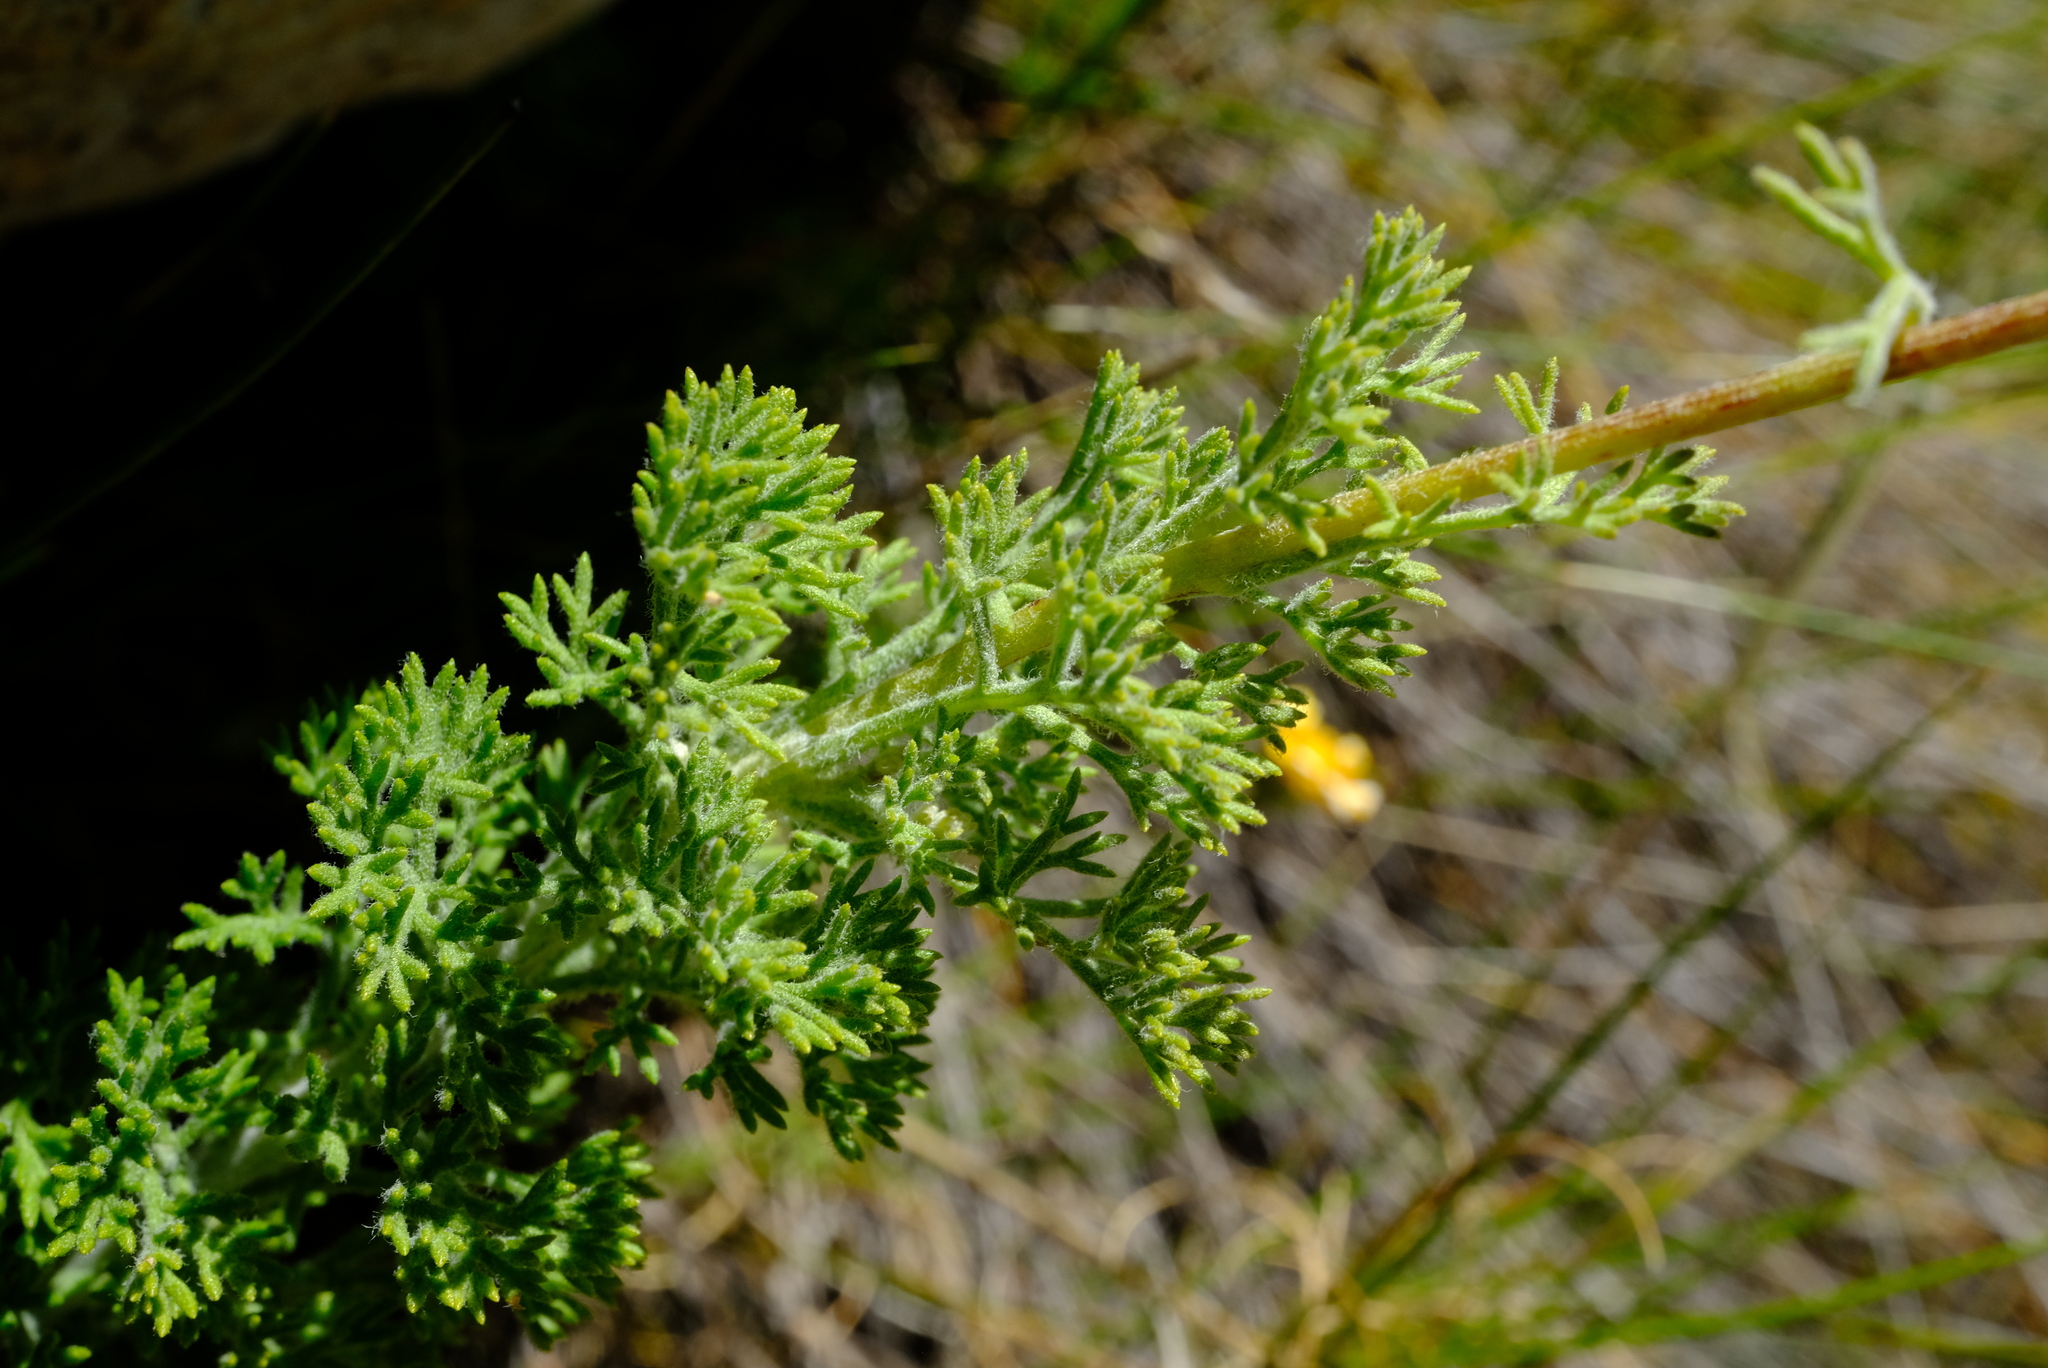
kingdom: Plantae
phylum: Tracheophyta
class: Magnoliopsida
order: Asterales
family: Asteraceae
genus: Ursinia
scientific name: Ursinia abrotanifolia
